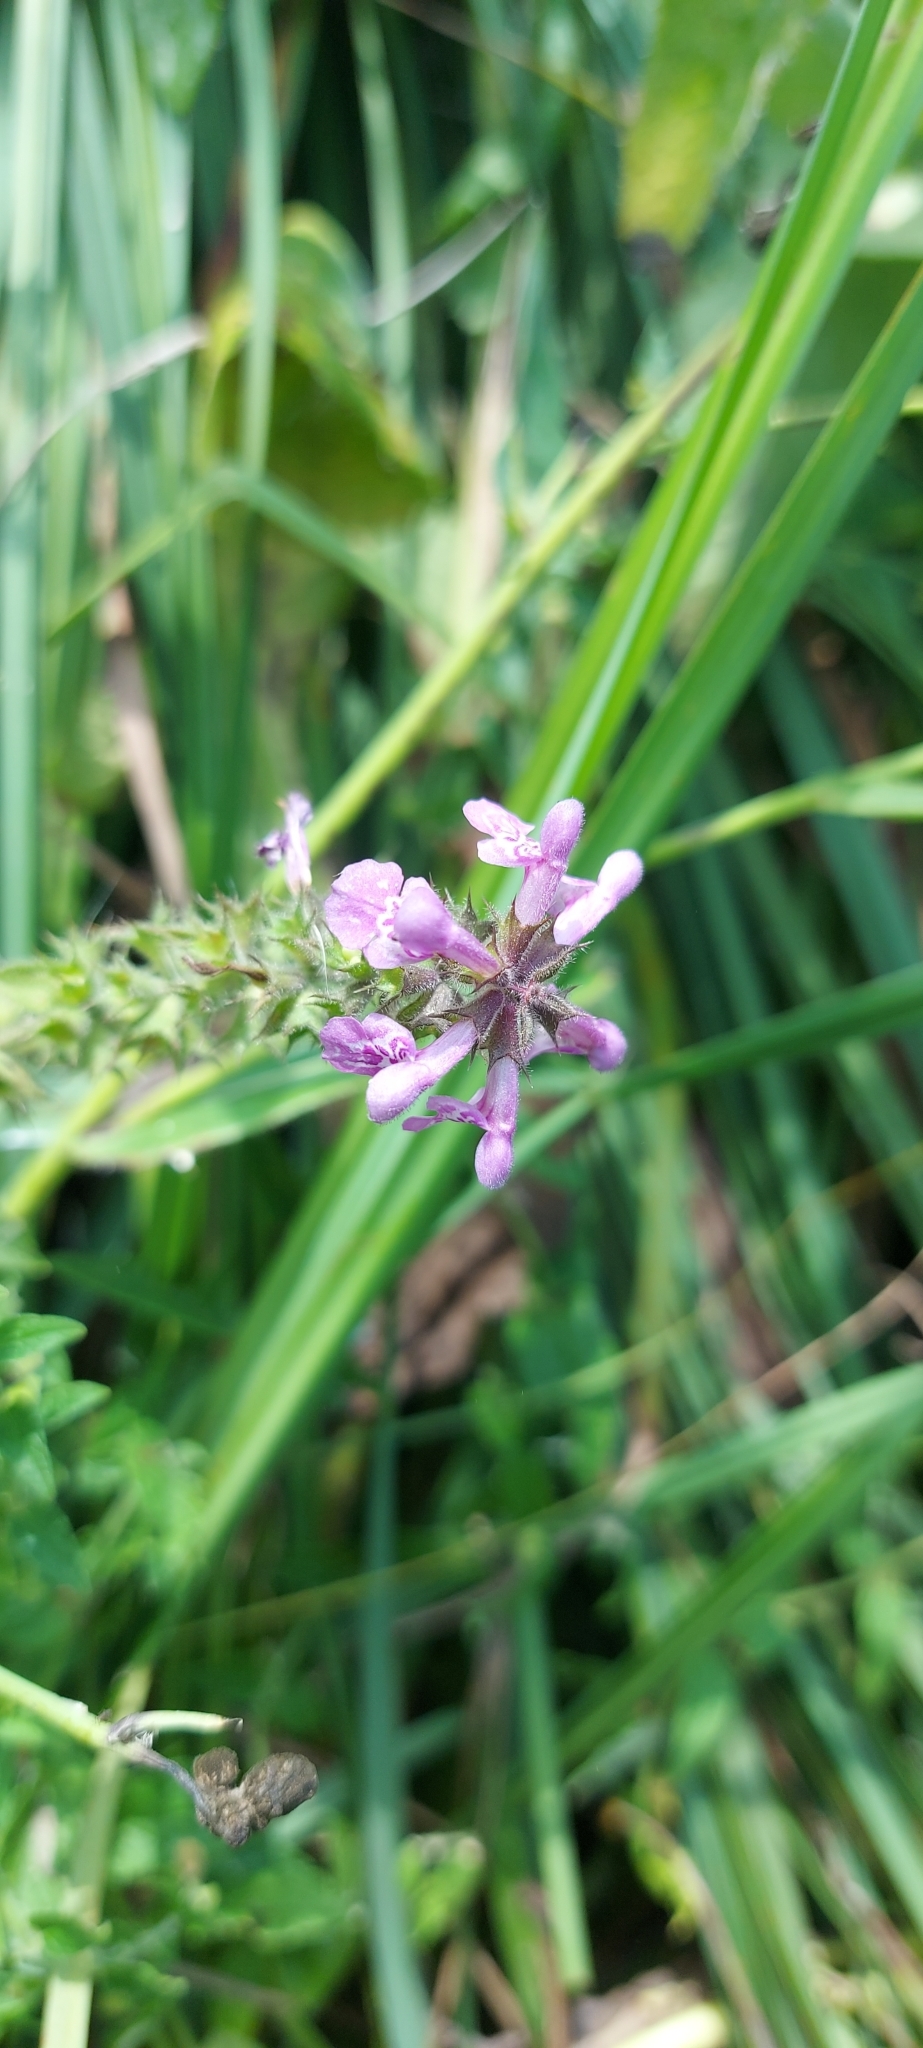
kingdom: Plantae
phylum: Tracheophyta
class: Magnoliopsida
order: Lamiales
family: Lamiaceae
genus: Stachys
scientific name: Stachys palustris
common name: Marsh woundwort
